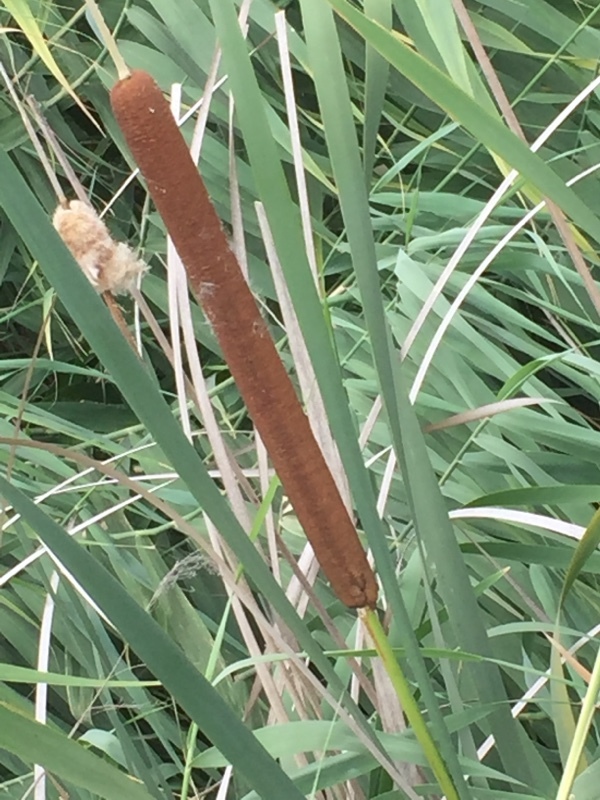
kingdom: Plantae
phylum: Tracheophyta
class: Liliopsida
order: Poales
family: Typhaceae
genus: Typha
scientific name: Typha latifolia
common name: Broadleaf cattail
